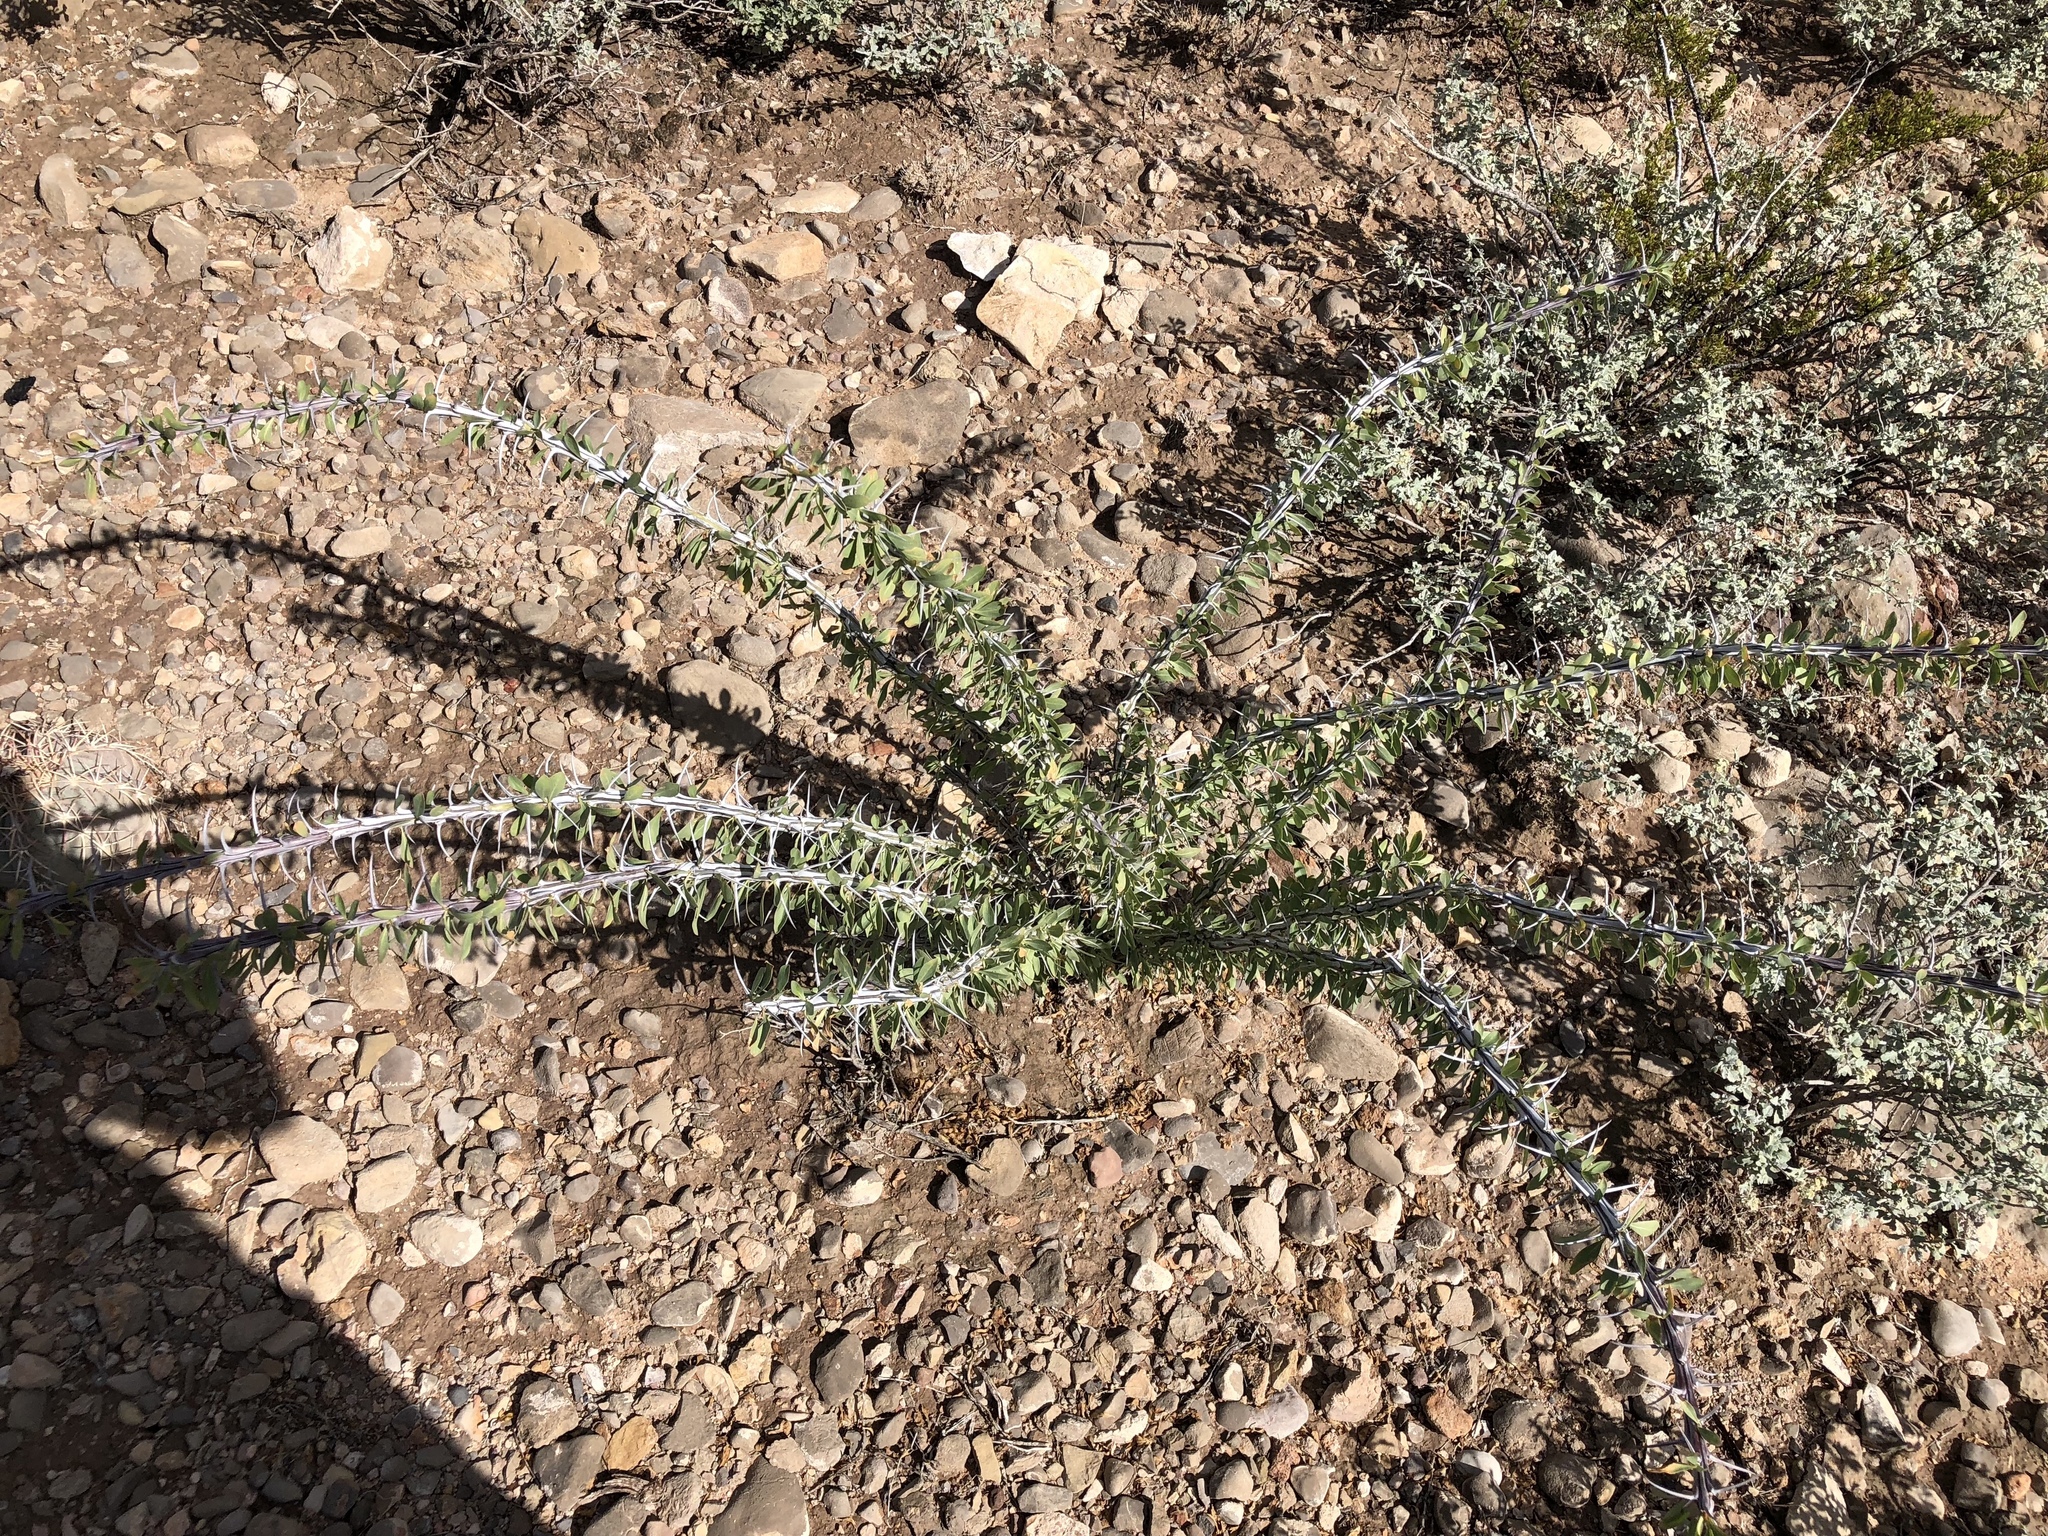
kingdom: Plantae
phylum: Tracheophyta
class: Magnoliopsida
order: Ericales
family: Fouquieriaceae
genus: Fouquieria
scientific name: Fouquieria splendens
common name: Vine-cactus
